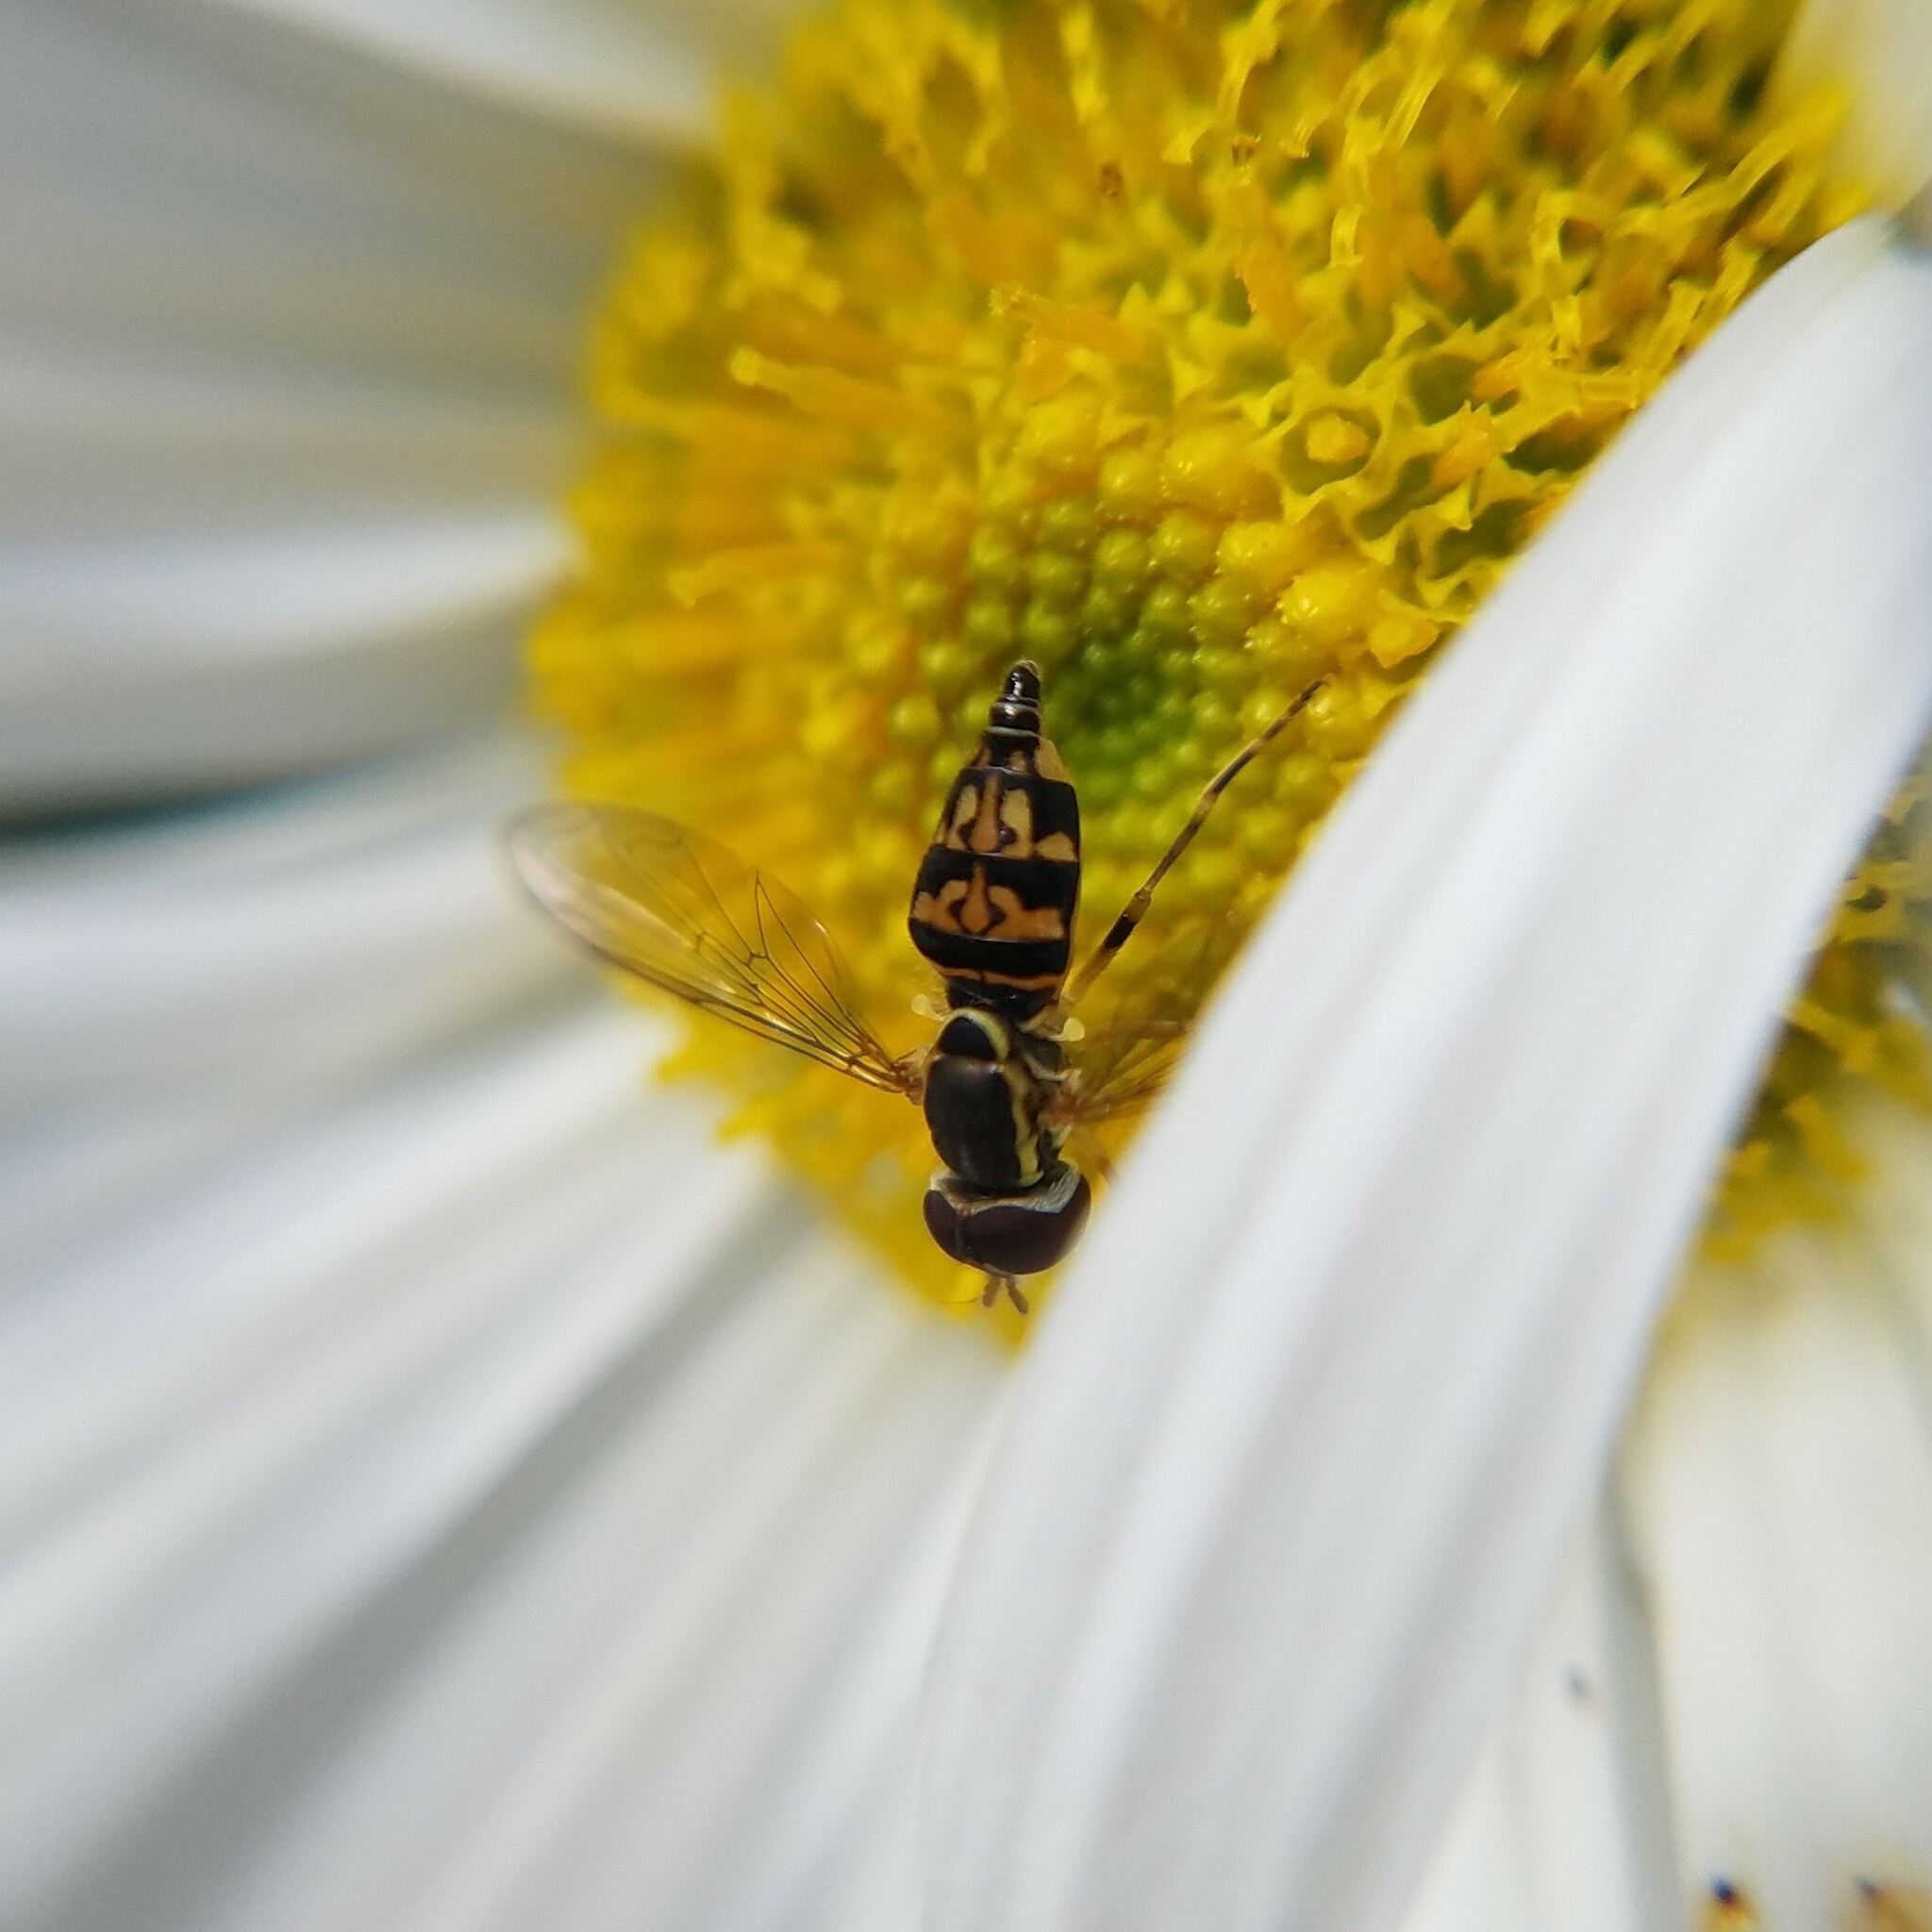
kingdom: Animalia
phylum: Arthropoda
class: Insecta
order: Diptera
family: Syrphidae
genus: Toxomerus
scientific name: Toxomerus geminatus
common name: Eastern calligrapher
